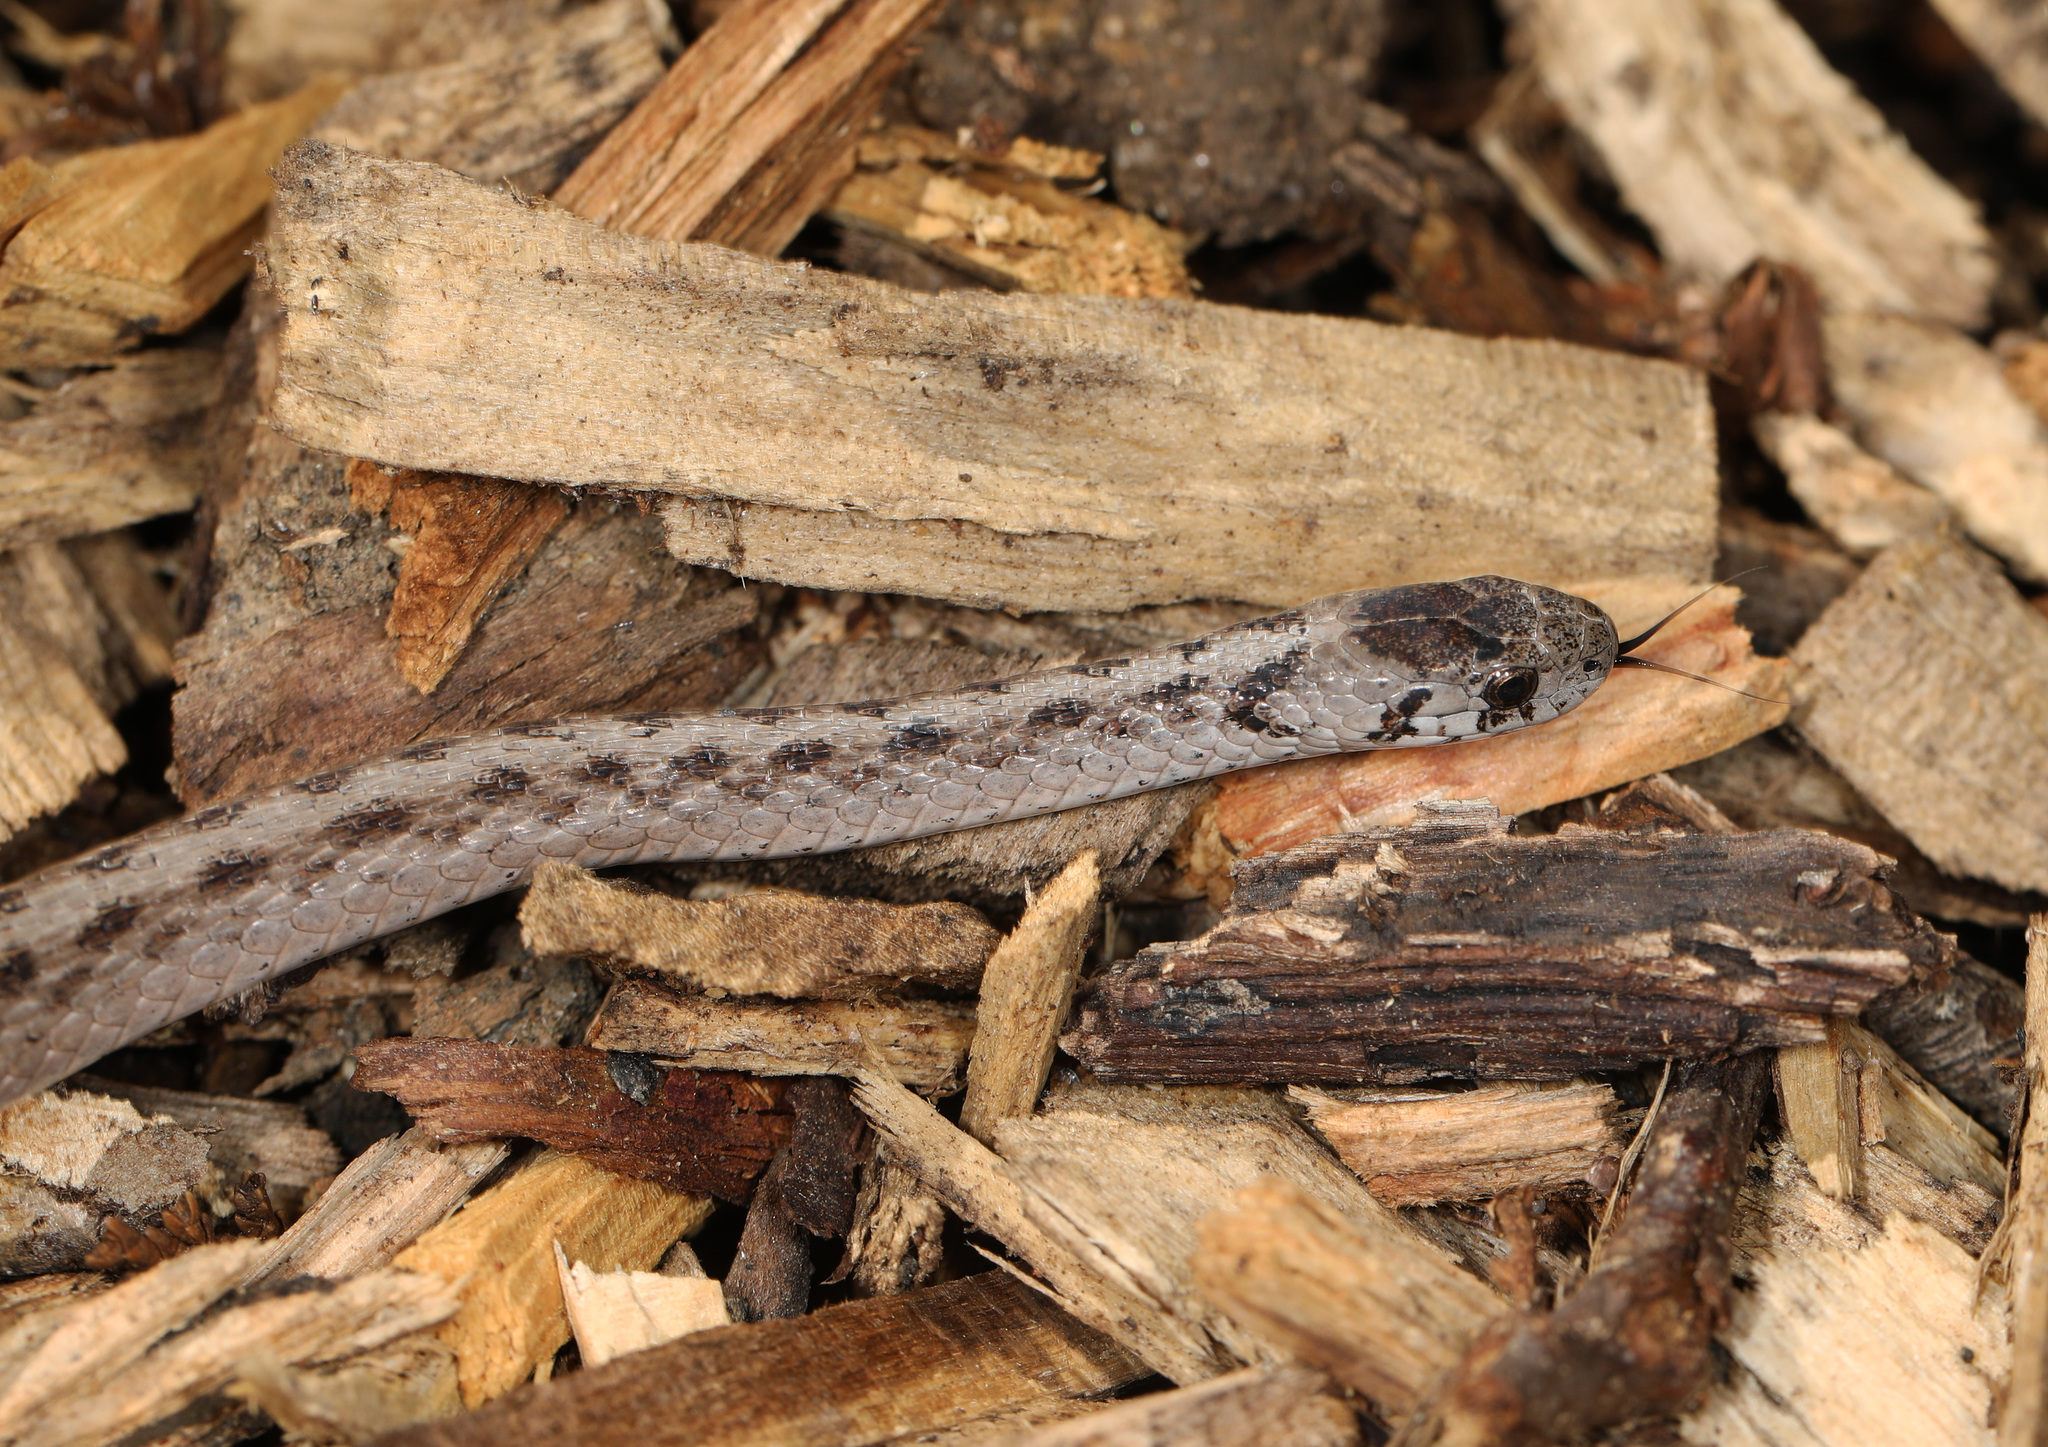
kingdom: Animalia
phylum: Chordata
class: Squamata
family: Colubridae
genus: Storeria
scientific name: Storeria dekayi
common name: (dekay’s) brown snake
